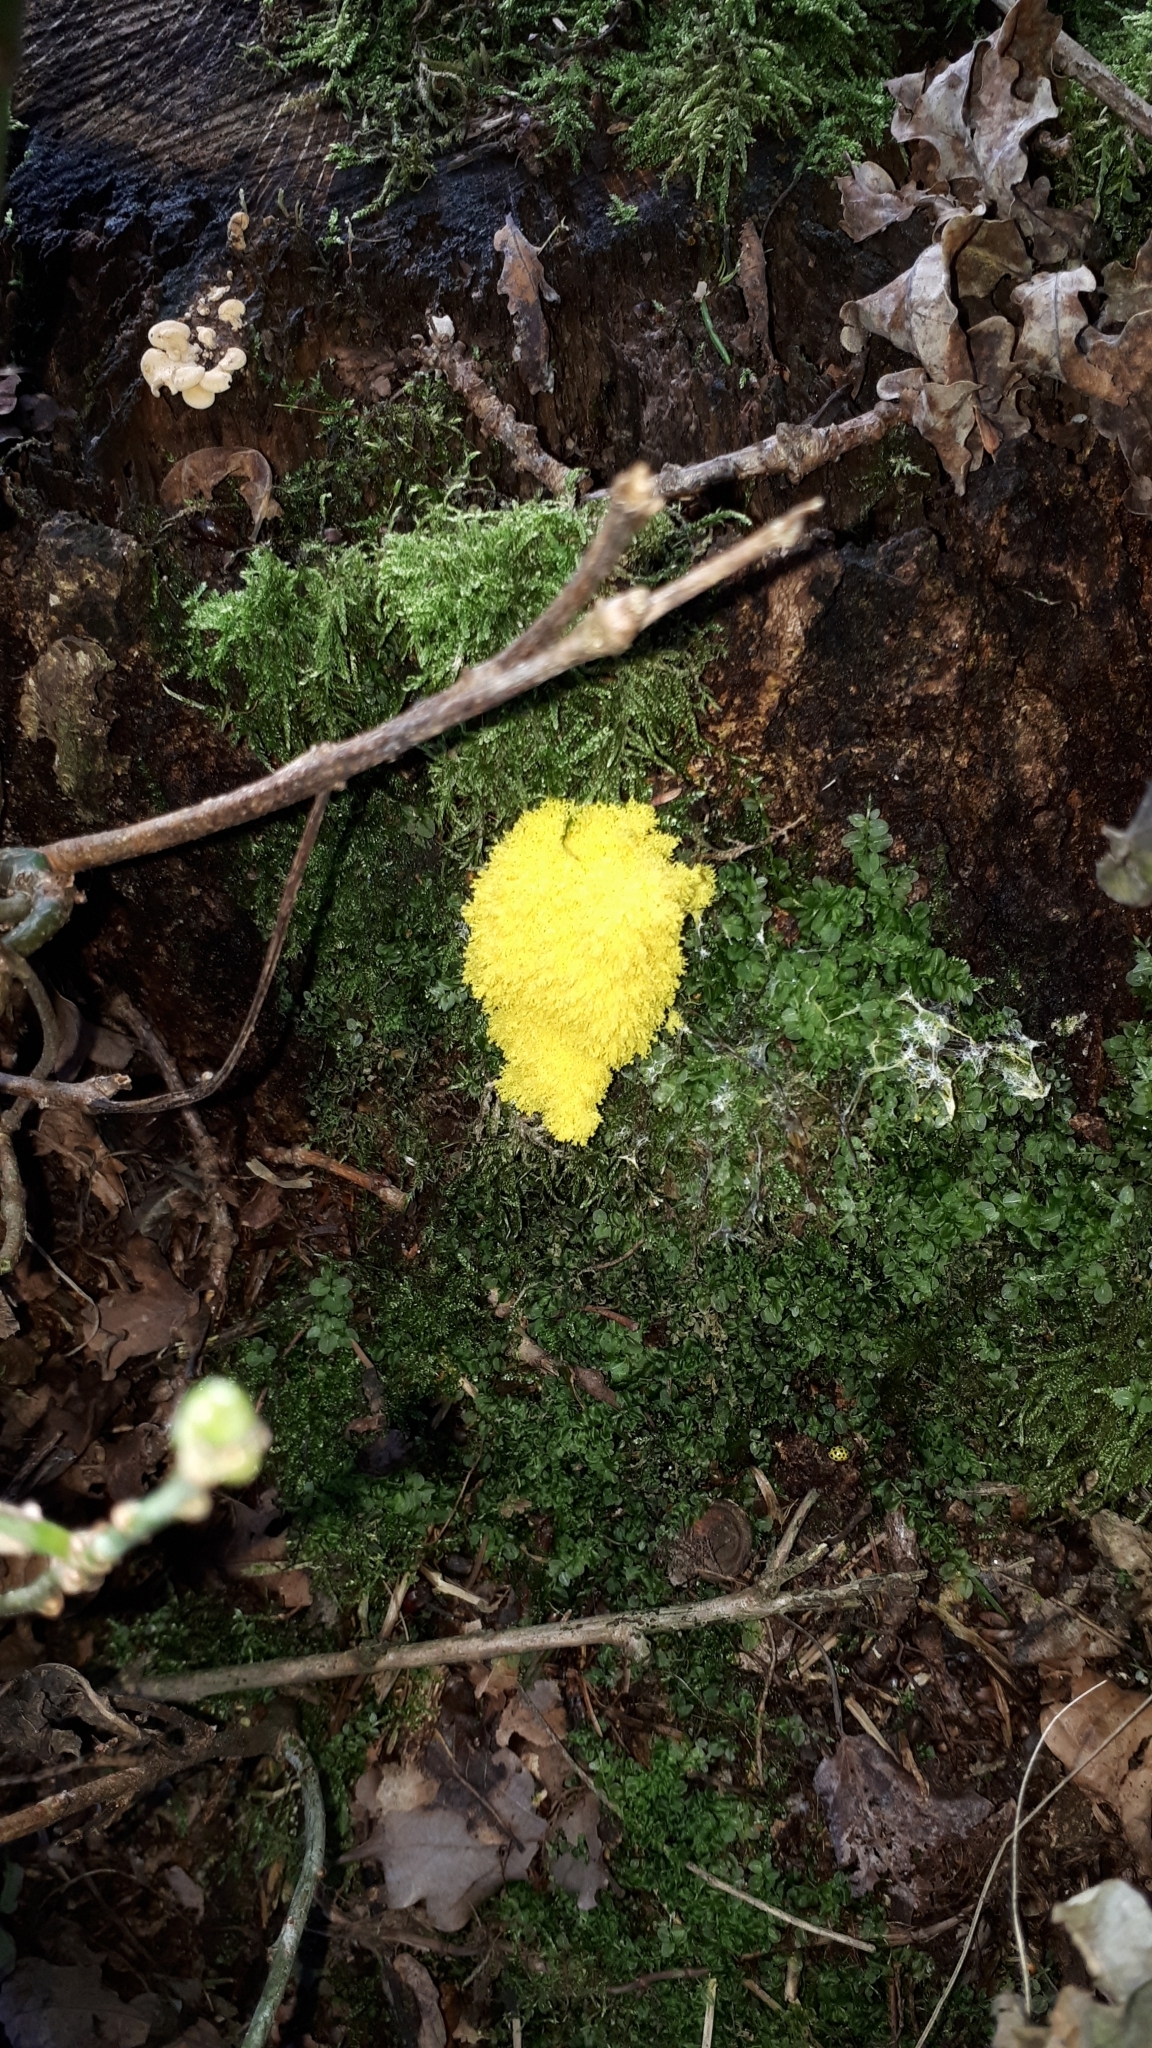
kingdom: Protozoa
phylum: Mycetozoa
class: Myxomycetes
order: Physarales
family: Physaraceae
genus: Fuligo
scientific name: Fuligo septica
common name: Dog vomit slime mold
